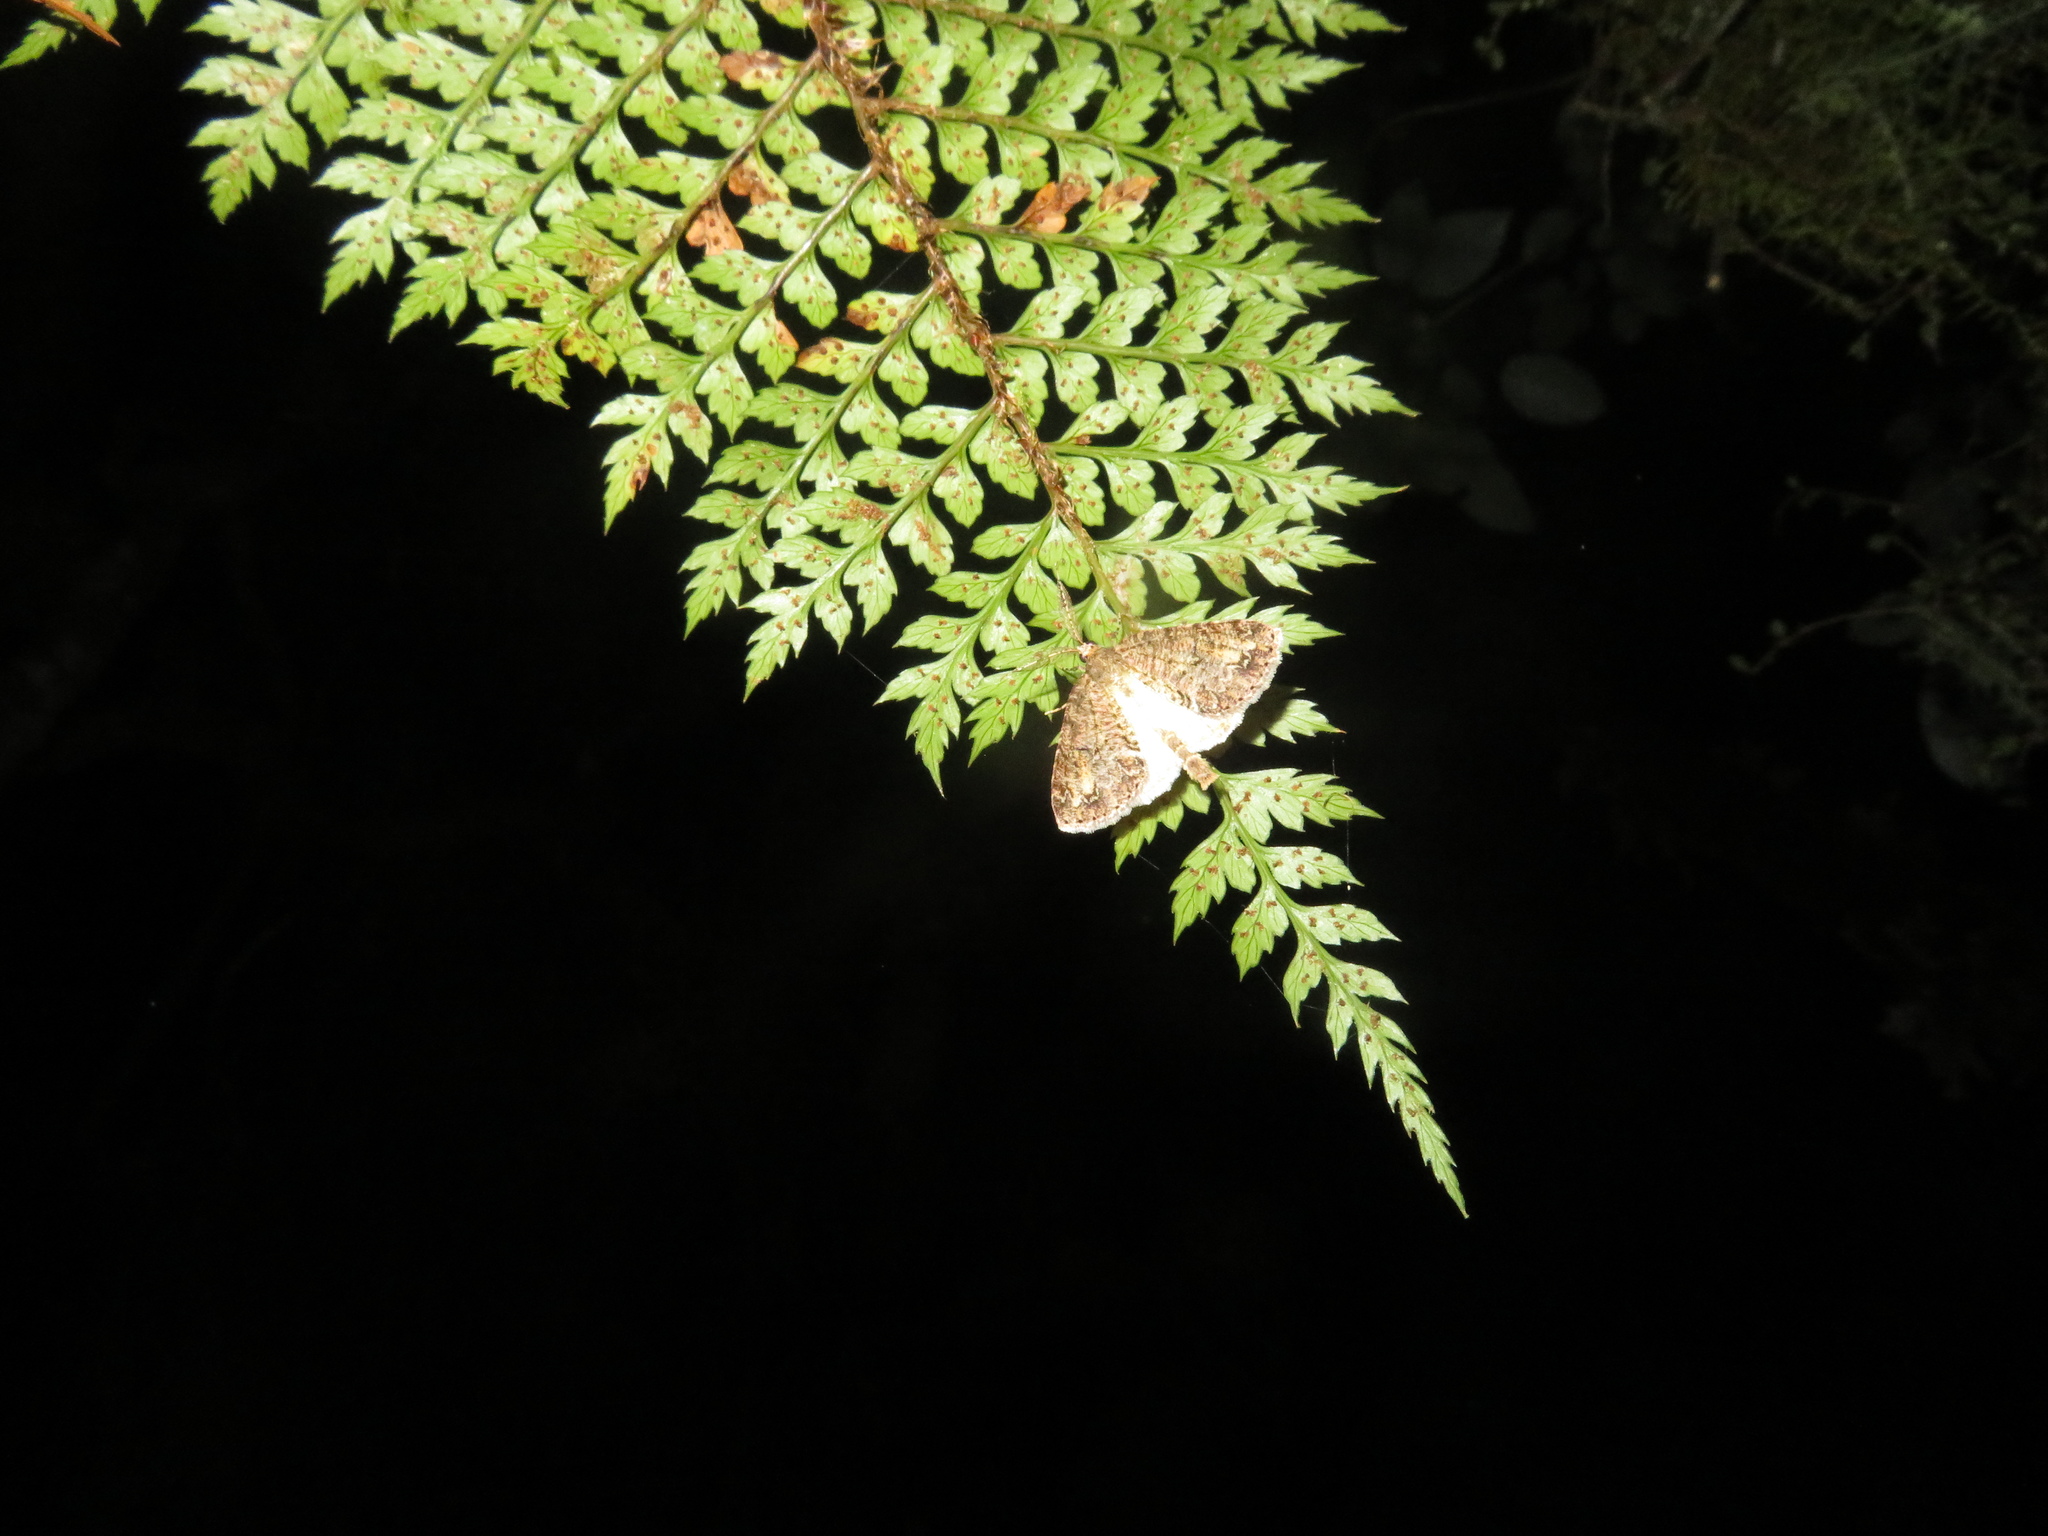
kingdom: Animalia
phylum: Arthropoda
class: Insecta
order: Lepidoptera
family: Geometridae
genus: Pseudocoremia
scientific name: Pseudocoremia suavis
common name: Common forest looper
